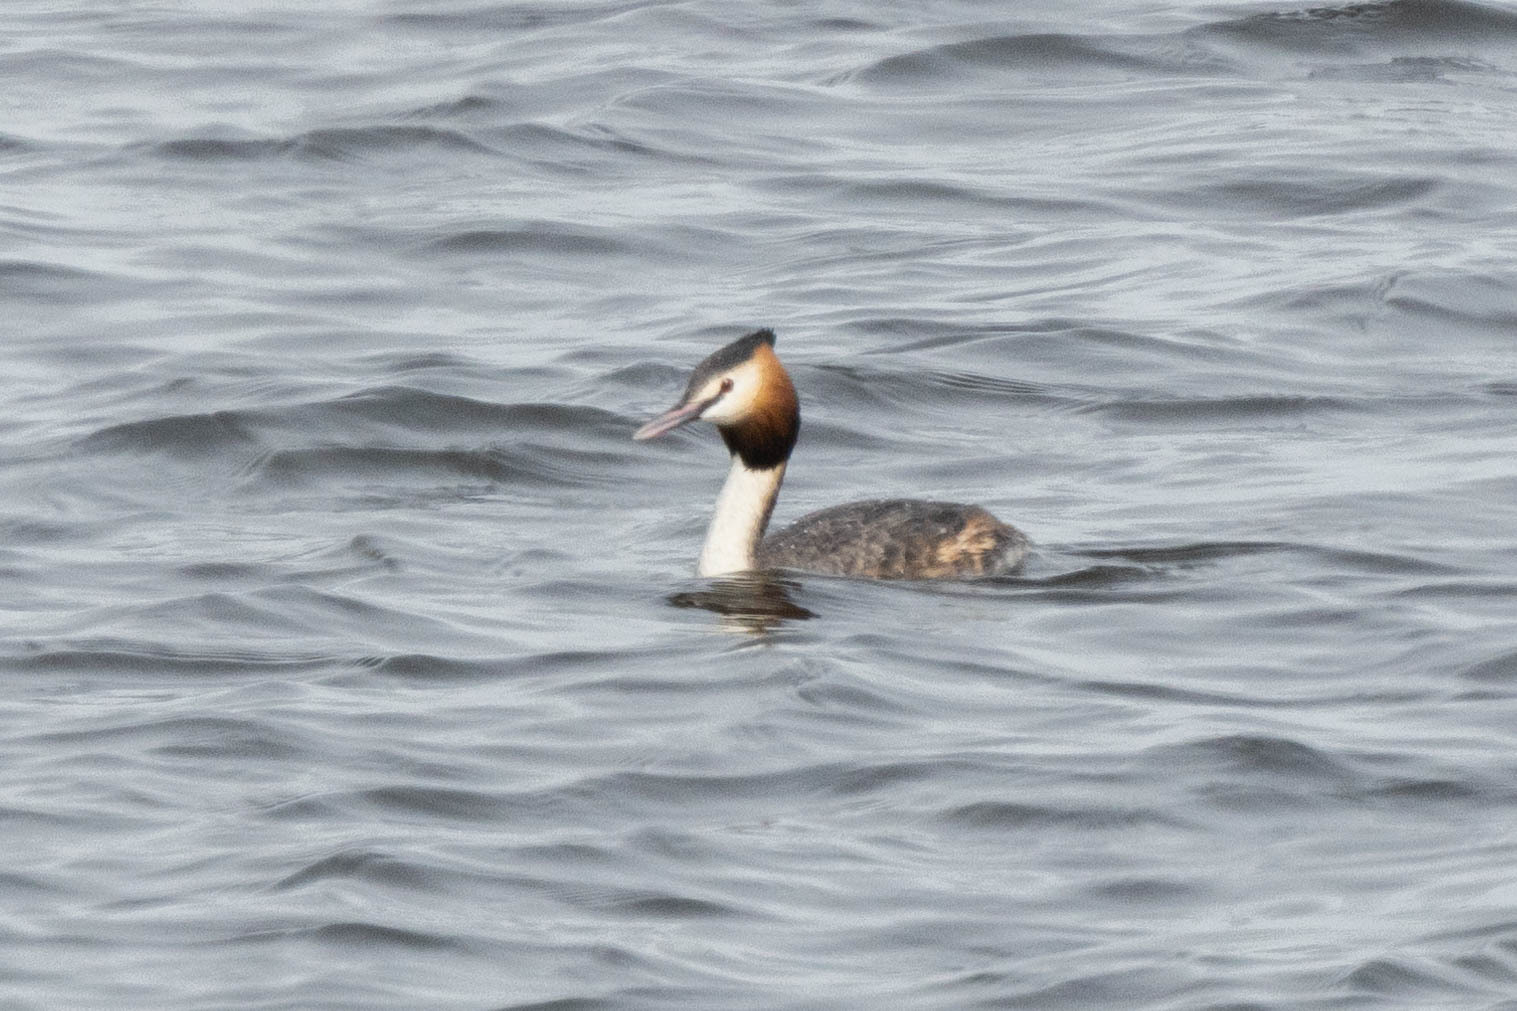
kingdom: Animalia
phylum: Chordata
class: Aves
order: Podicipediformes
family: Podicipedidae
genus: Podiceps
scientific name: Podiceps cristatus
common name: Great crested grebe
